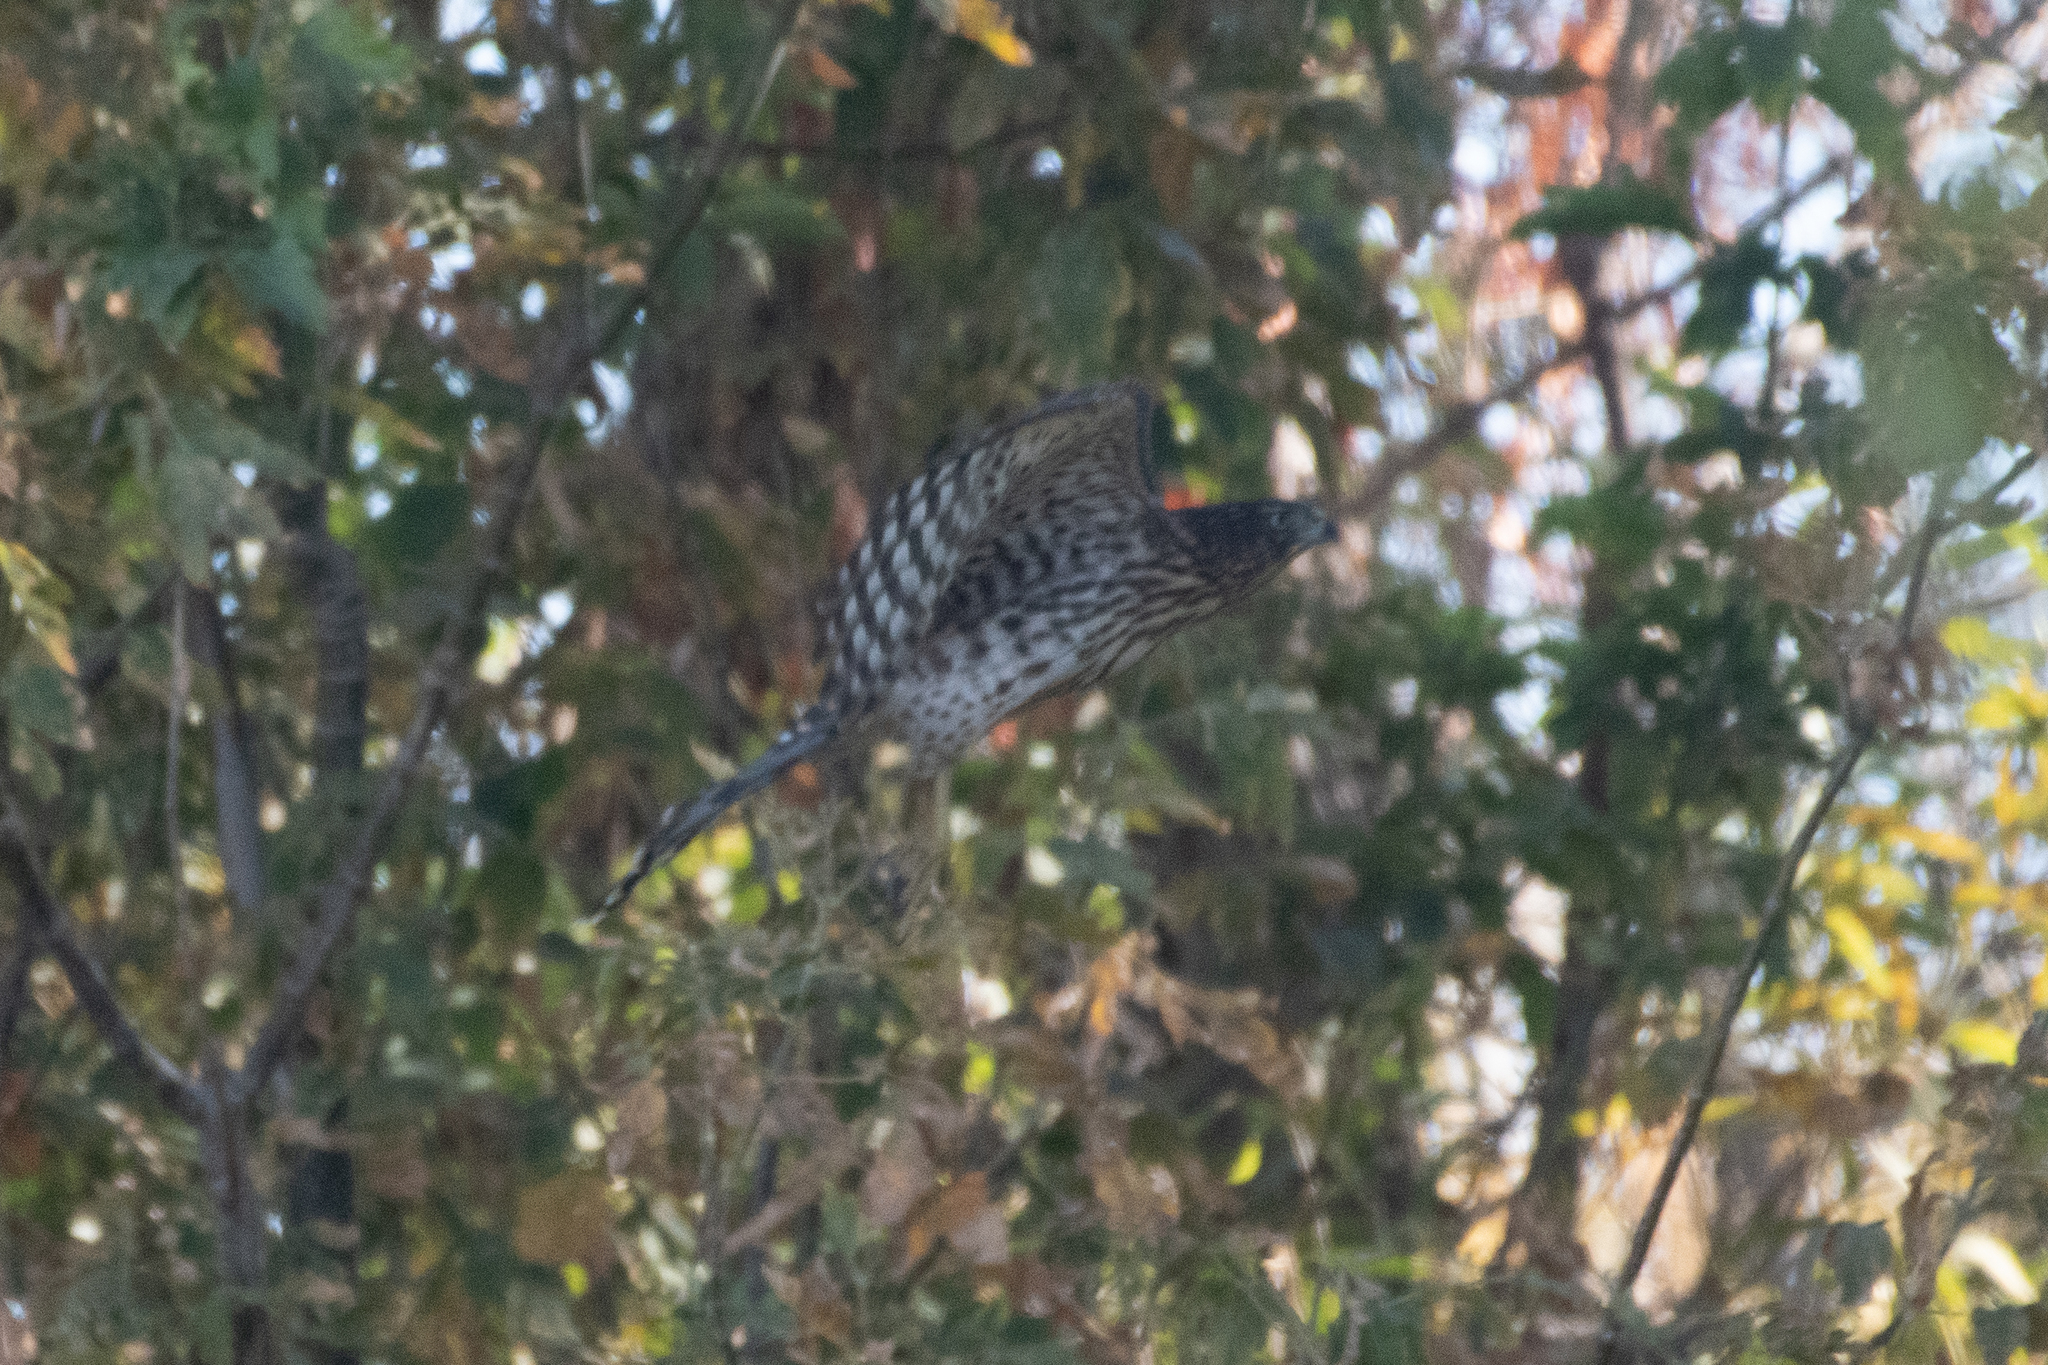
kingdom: Animalia
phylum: Chordata
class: Aves
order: Accipitriformes
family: Accipitridae
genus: Accipiter
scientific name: Accipiter cooperii
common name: Cooper's hawk
